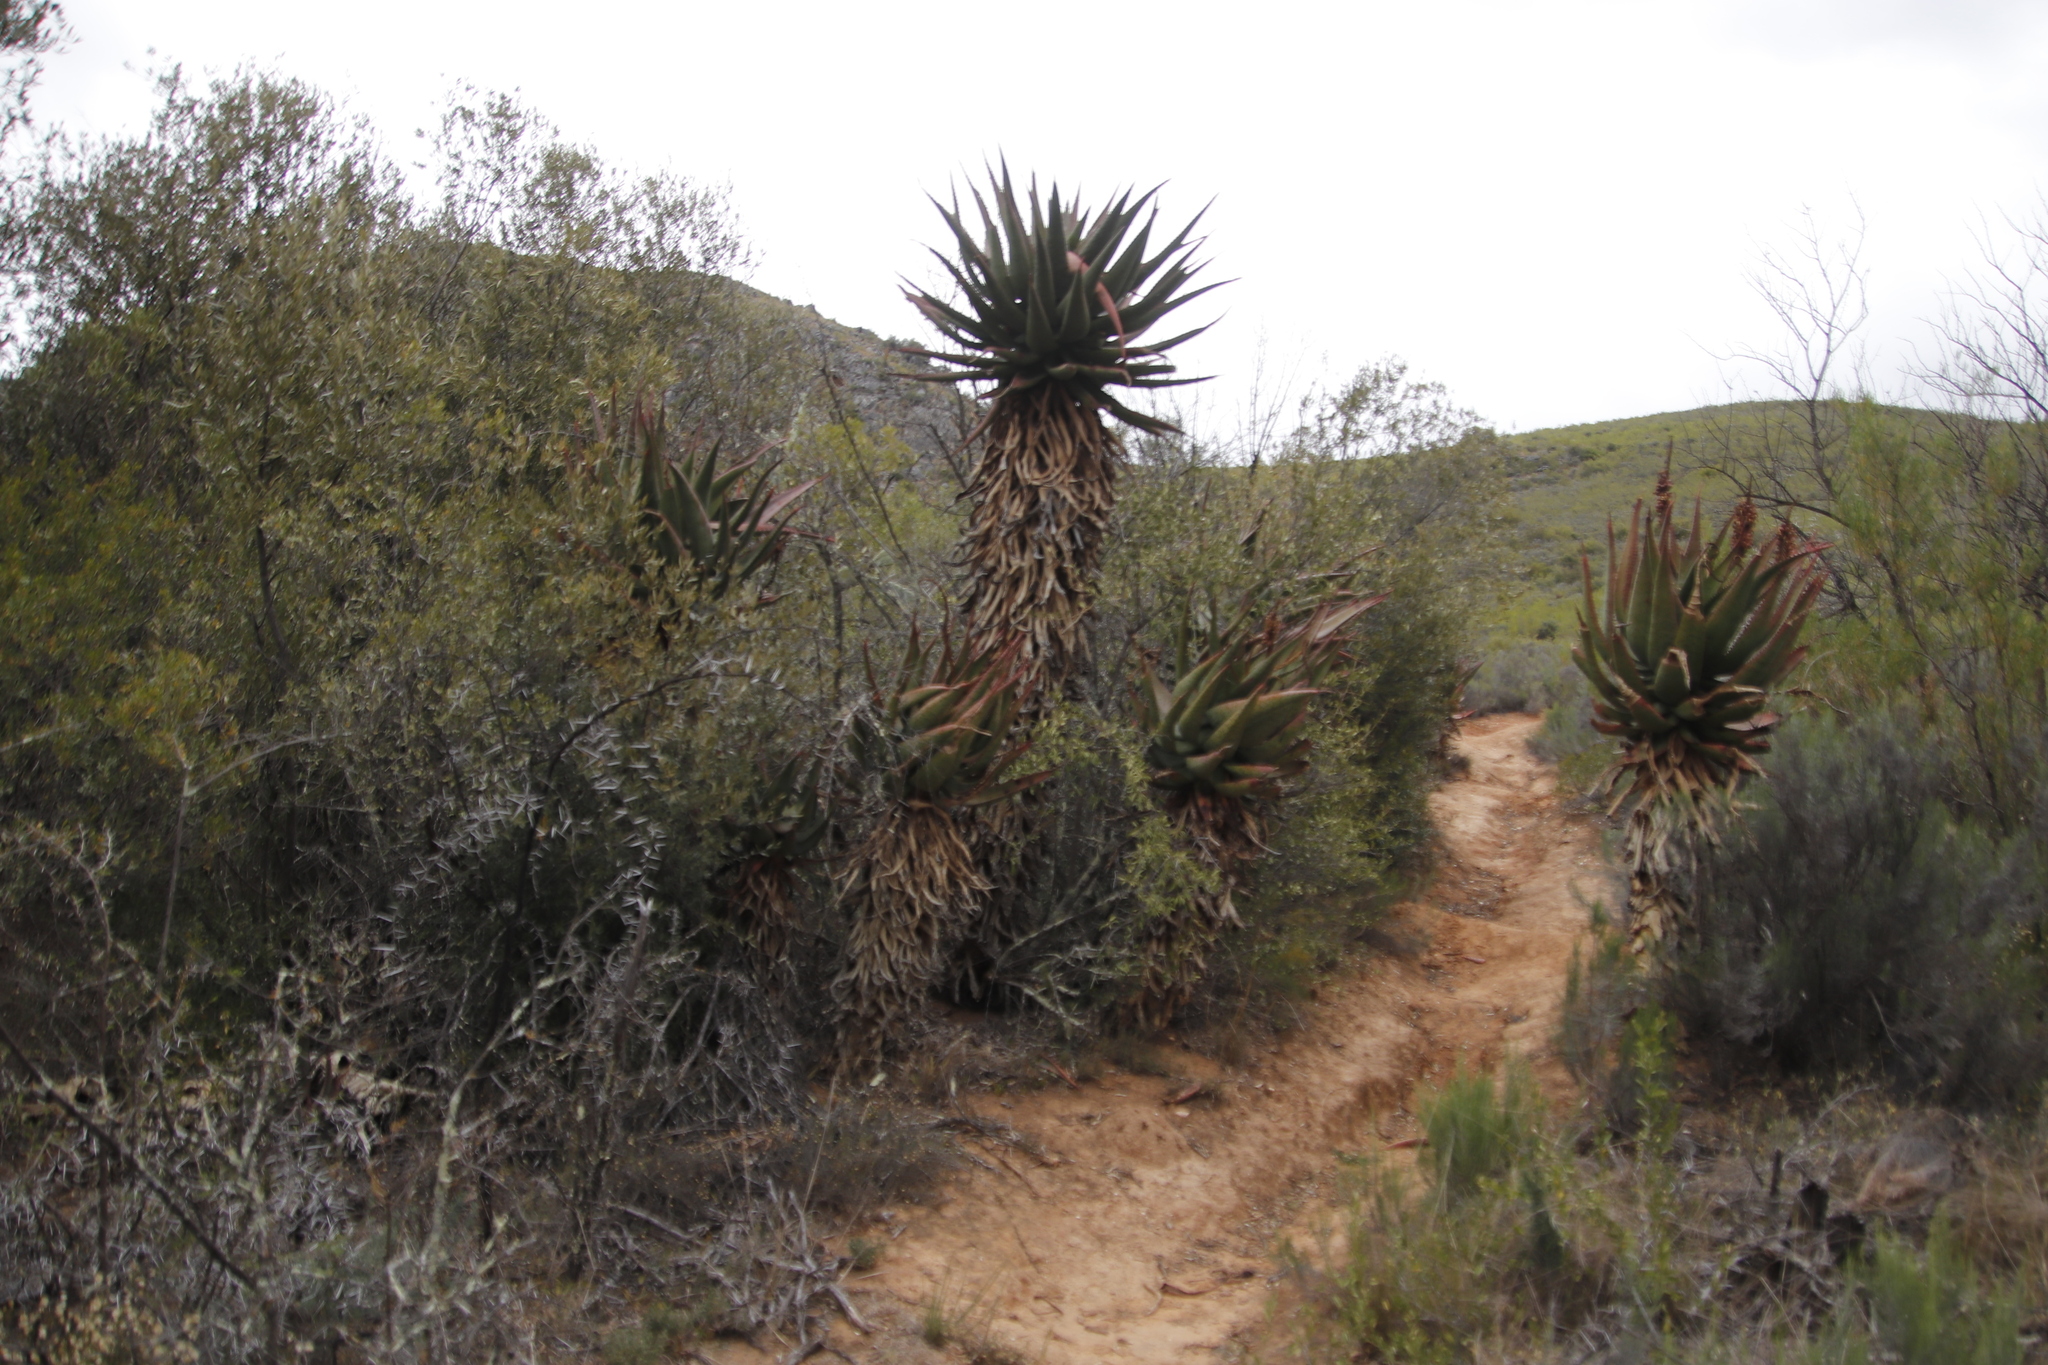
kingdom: Plantae
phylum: Tracheophyta
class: Liliopsida
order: Asparagales
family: Asphodelaceae
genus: Aloe
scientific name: Aloe ferox
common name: Bitter aloe
